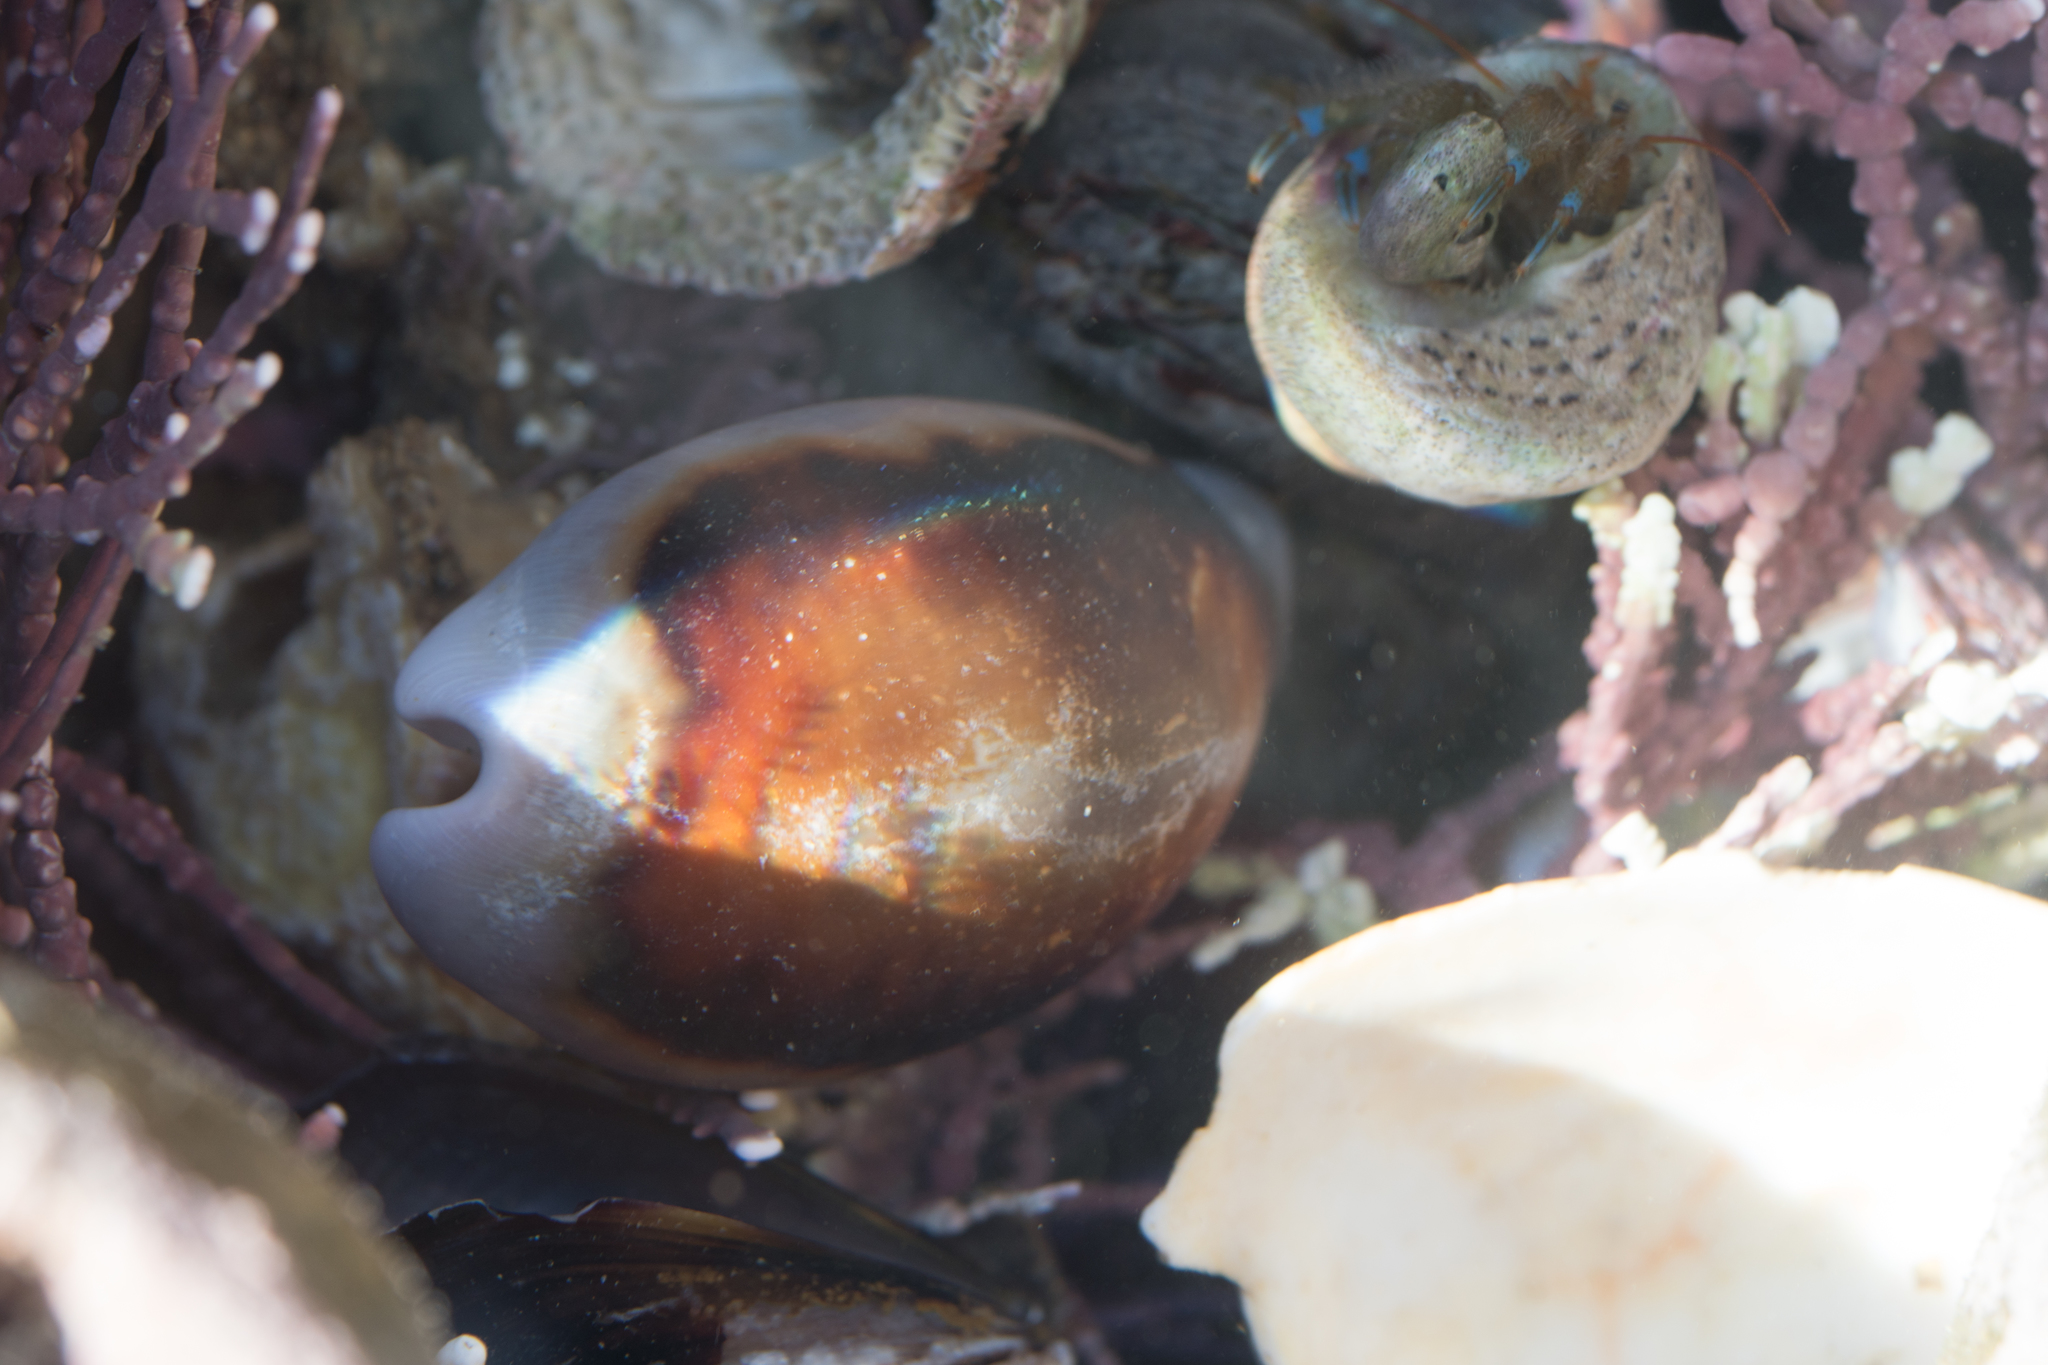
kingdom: Animalia
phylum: Mollusca
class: Gastropoda
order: Littorinimorpha
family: Cypraeidae
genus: Neobernaya
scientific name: Neobernaya spadicea
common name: Chestnut cowrie
